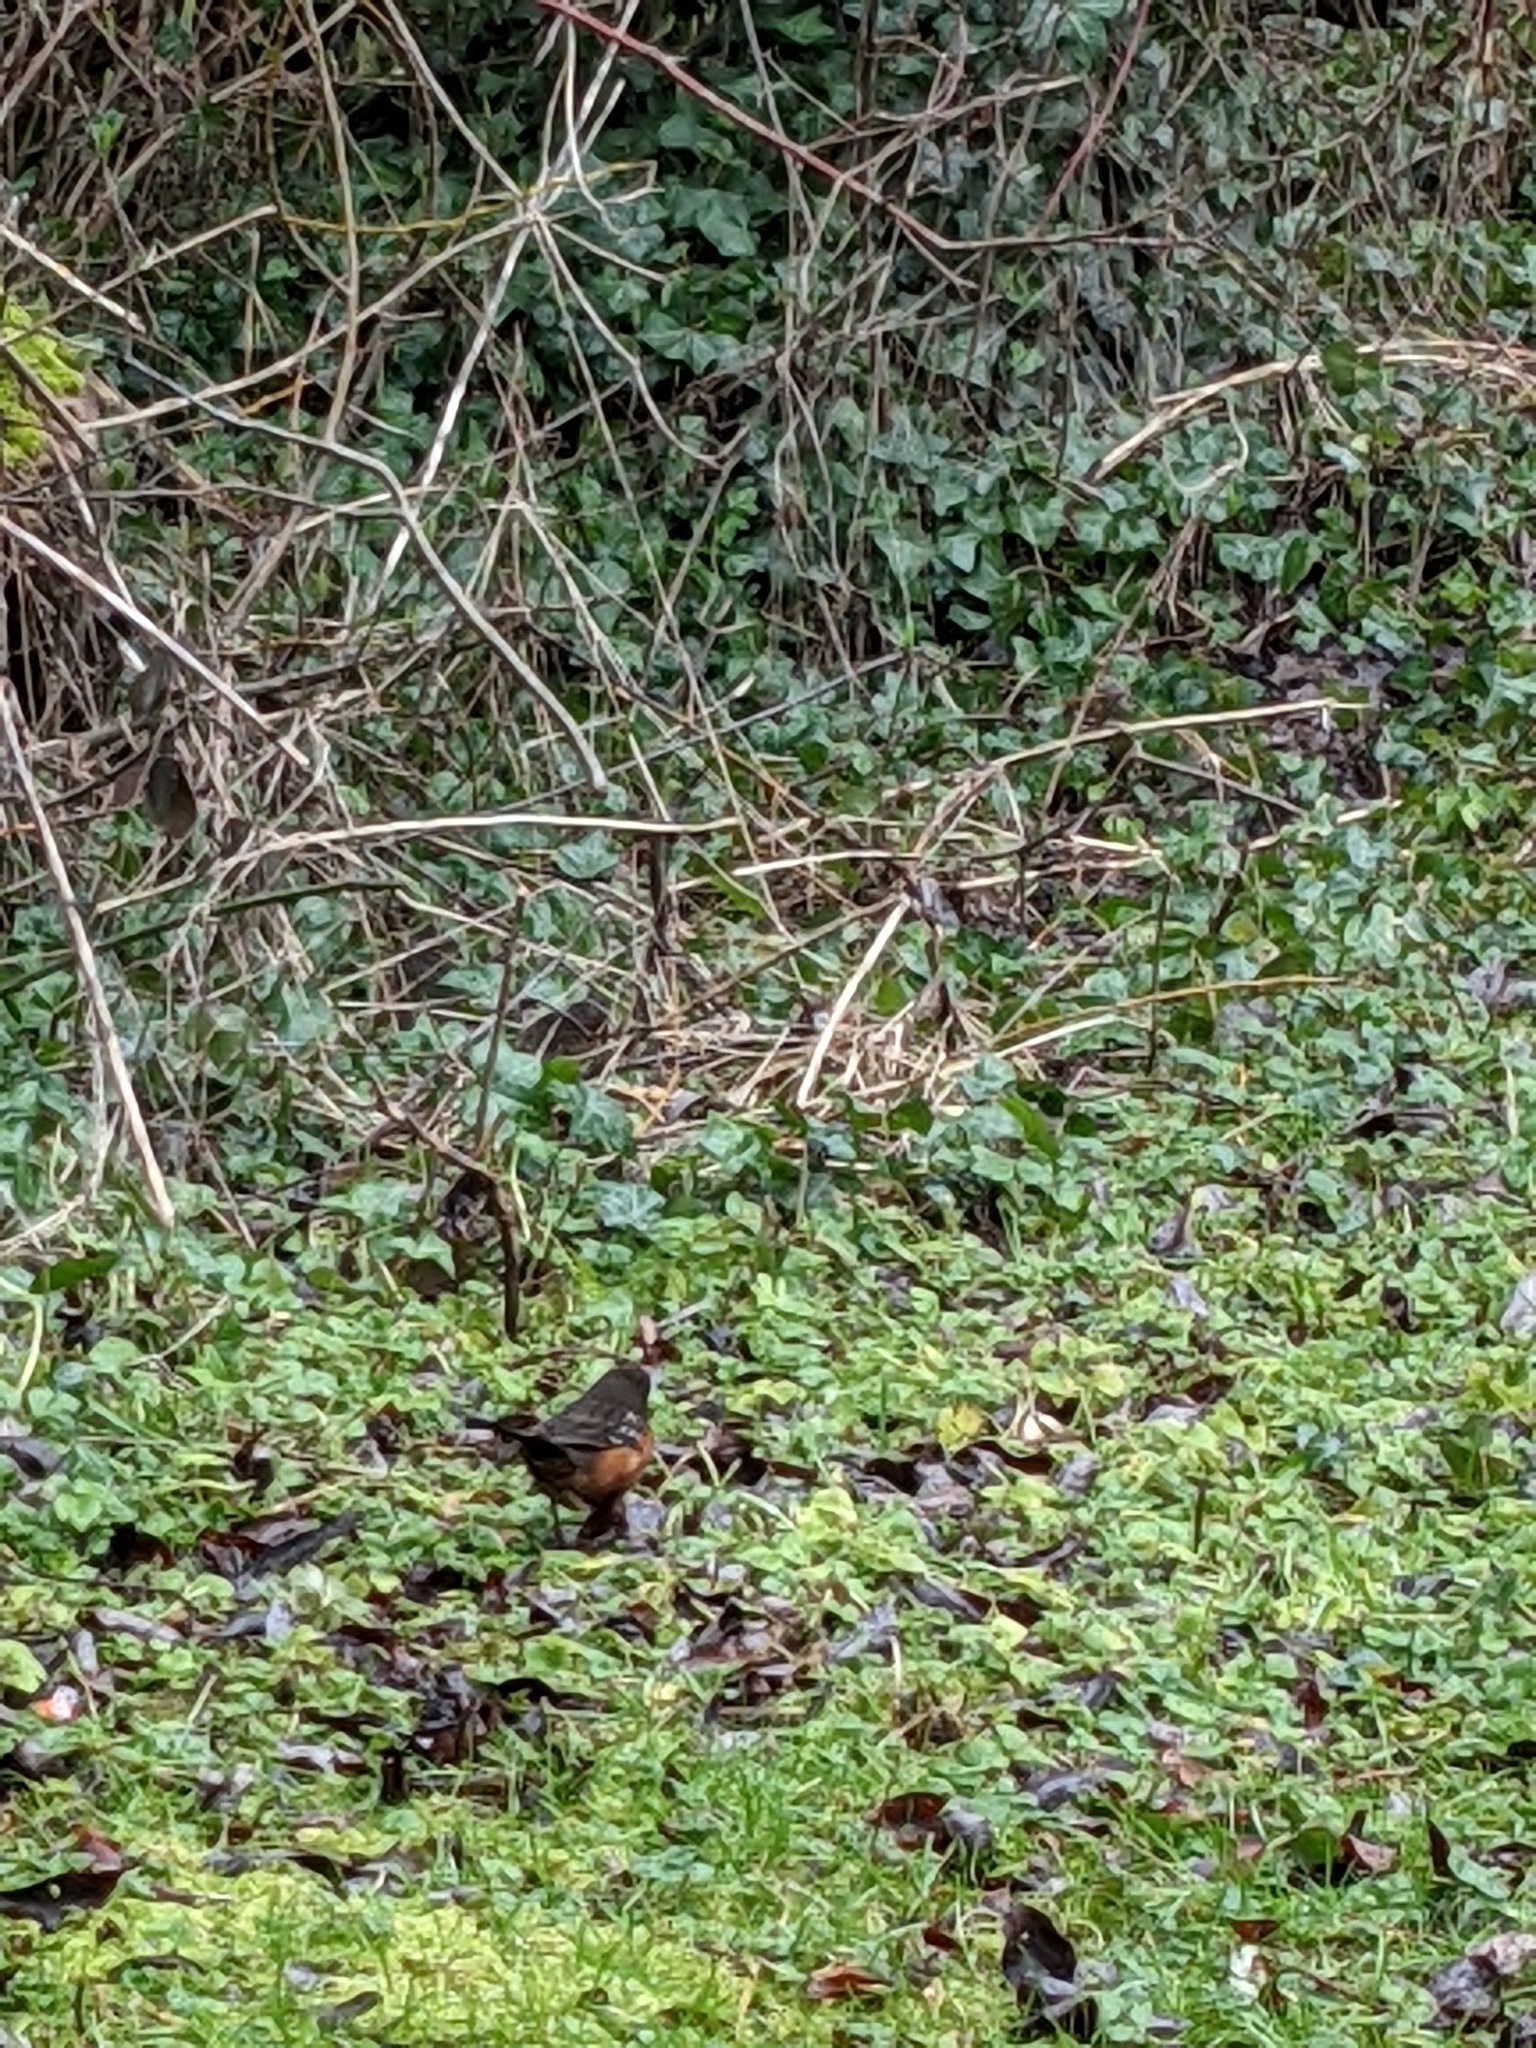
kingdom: Animalia
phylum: Chordata
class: Aves
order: Passeriformes
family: Passerellidae
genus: Pipilo
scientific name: Pipilo maculatus
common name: Spotted towhee
